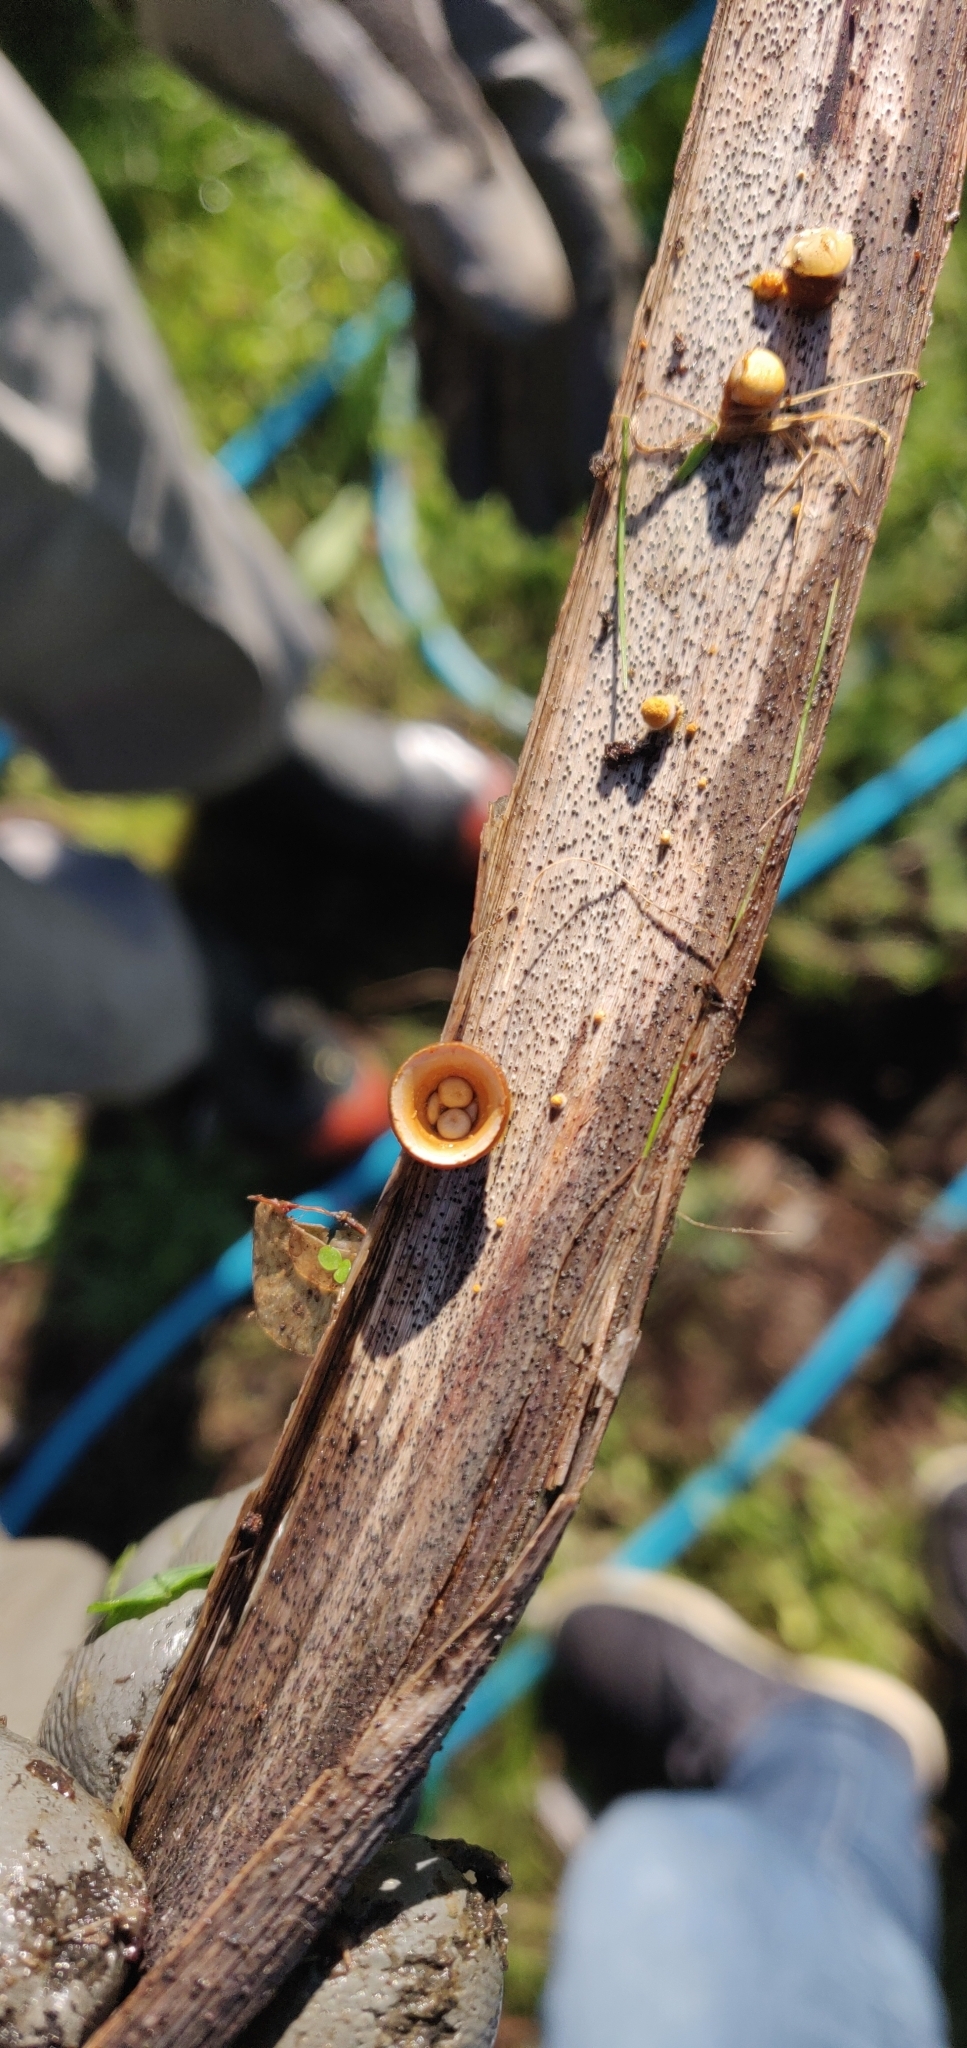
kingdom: Fungi
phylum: Basidiomycota
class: Agaricomycetes
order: Agaricales
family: Nidulariaceae
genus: Crucibulum
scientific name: Crucibulum simile
